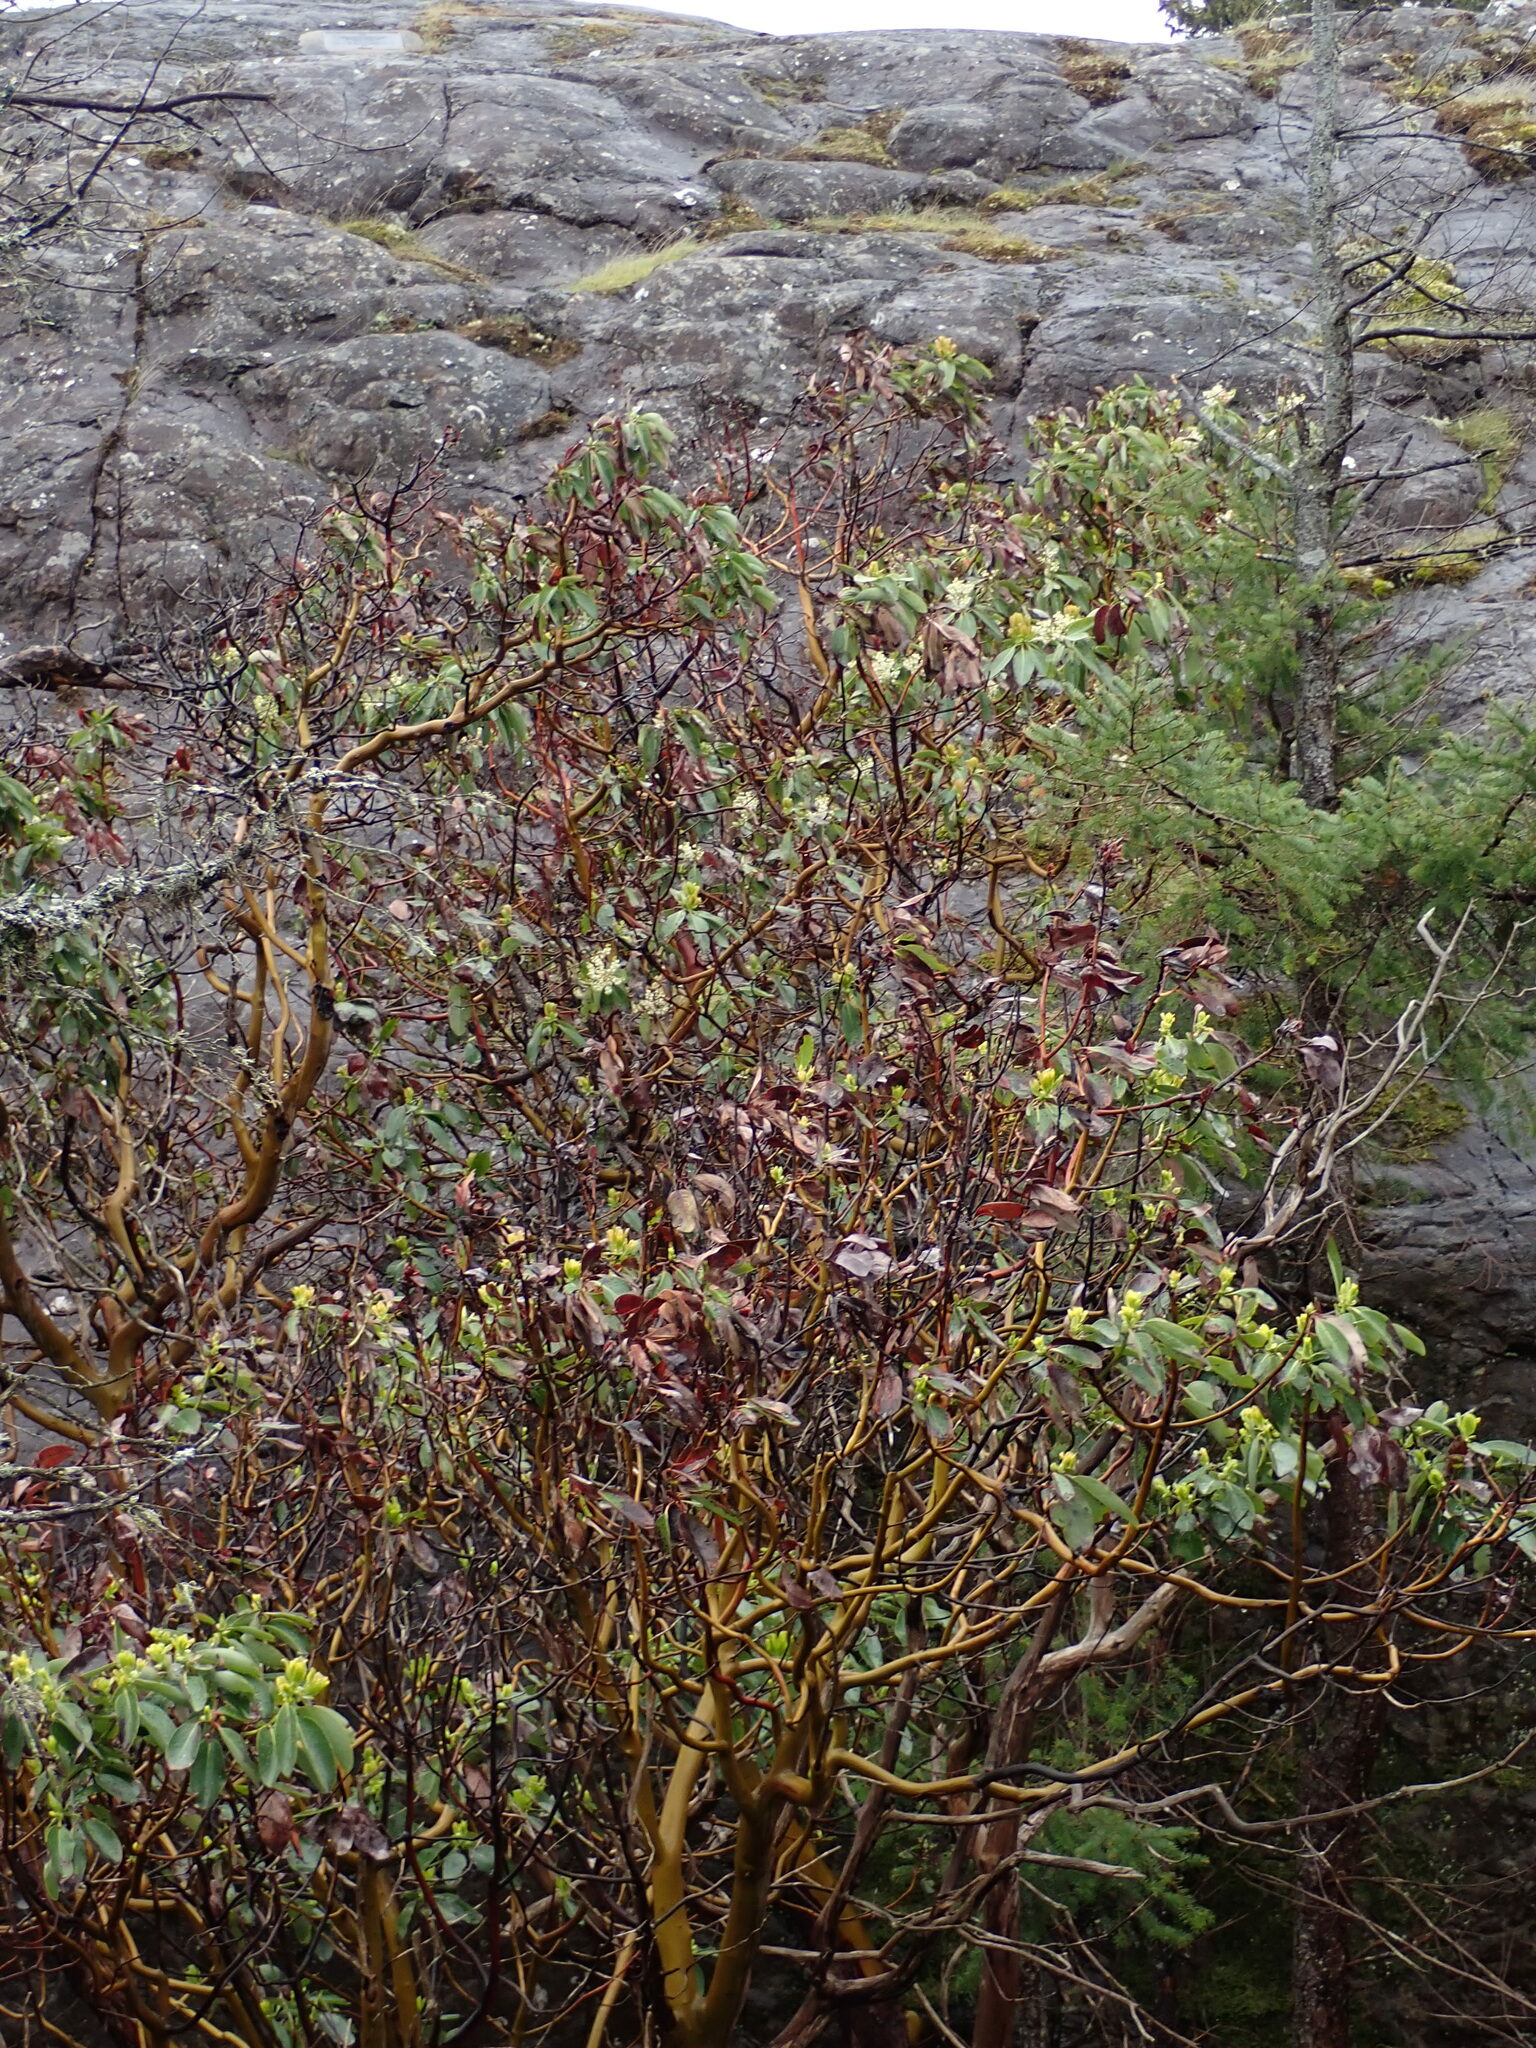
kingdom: Plantae
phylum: Tracheophyta
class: Magnoliopsida
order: Ericales
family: Ericaceae
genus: Arbutus
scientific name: Arbutus menziesii
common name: Pacific madrone
